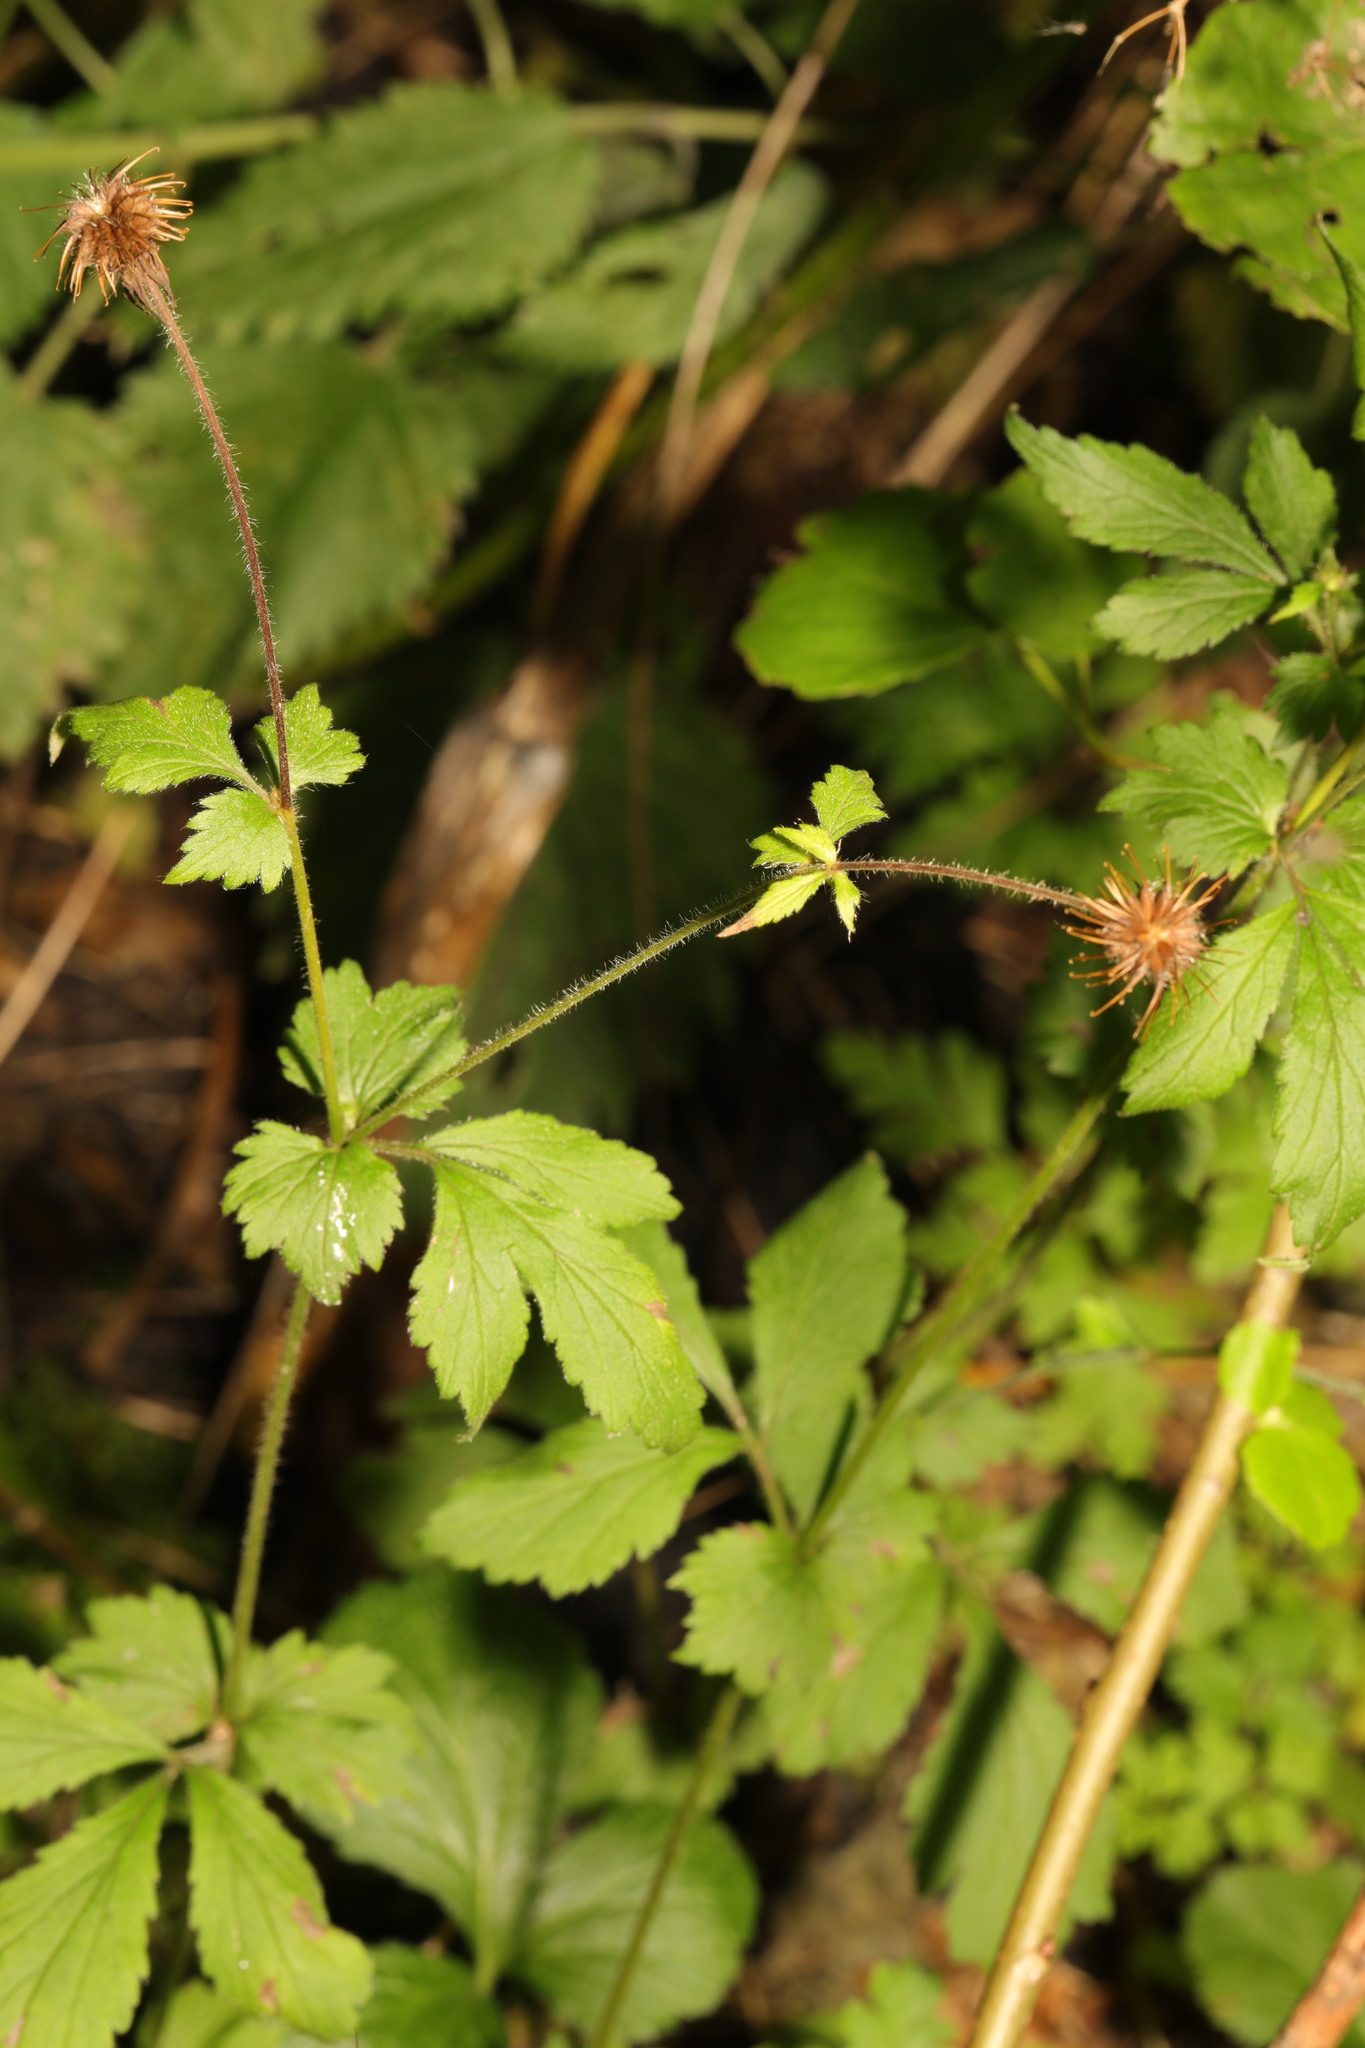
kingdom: Plantae
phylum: Tracheophyta
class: Magnoliopsida
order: Rosales
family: Rosaceae
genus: Geum
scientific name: Geum urbanum
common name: Wood avens
